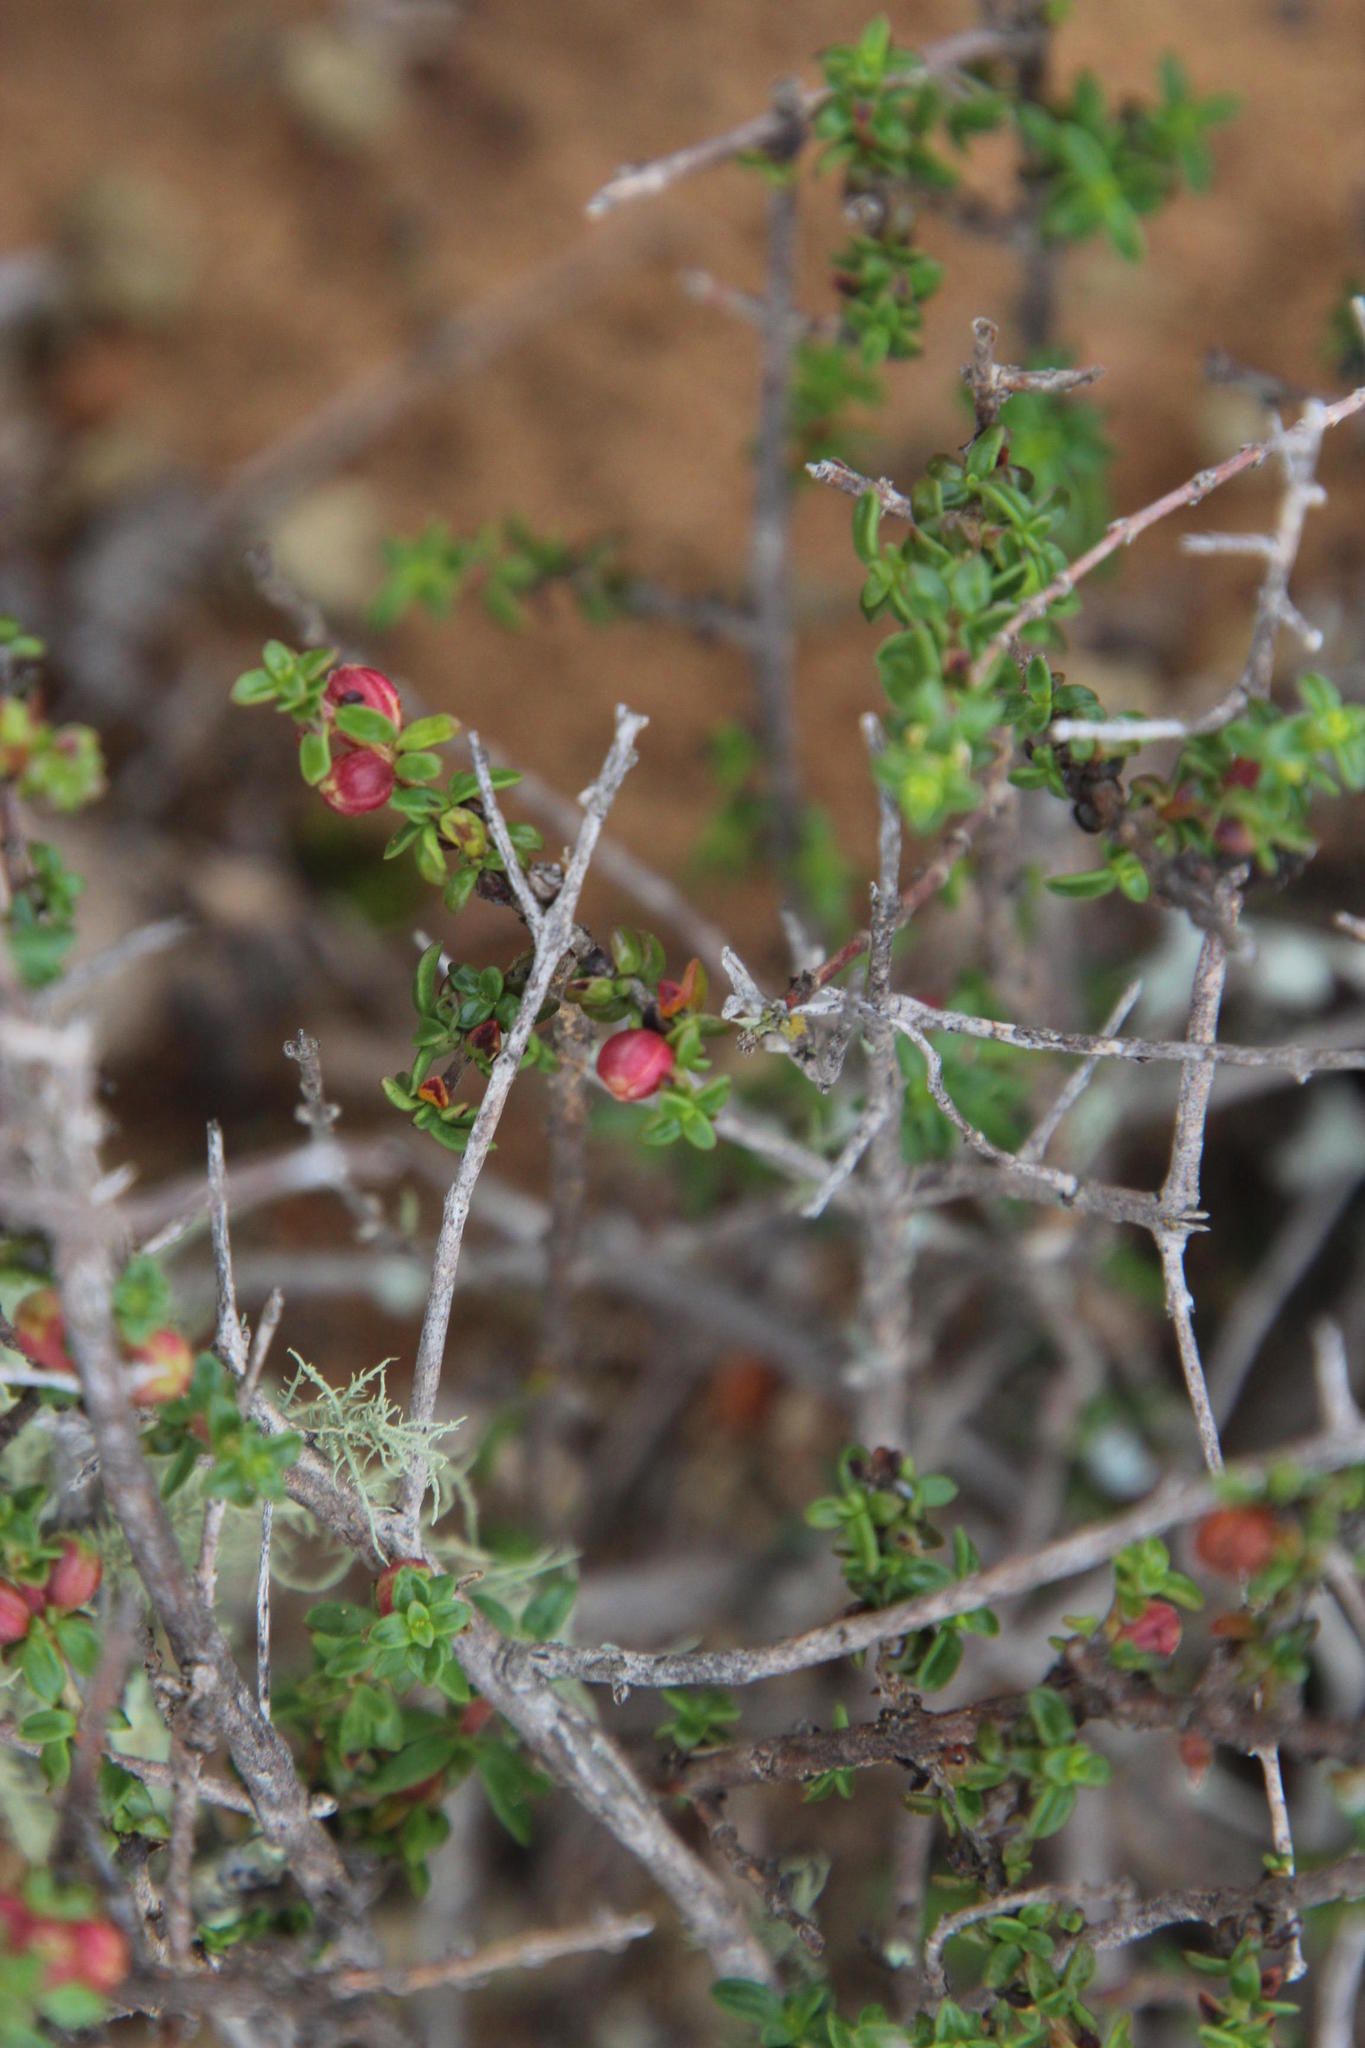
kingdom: Plantae
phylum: Tracheophyta
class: Magnoliopsida
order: Gentianales
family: Rubiaceae
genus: Nenax
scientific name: Nenax microphylla
